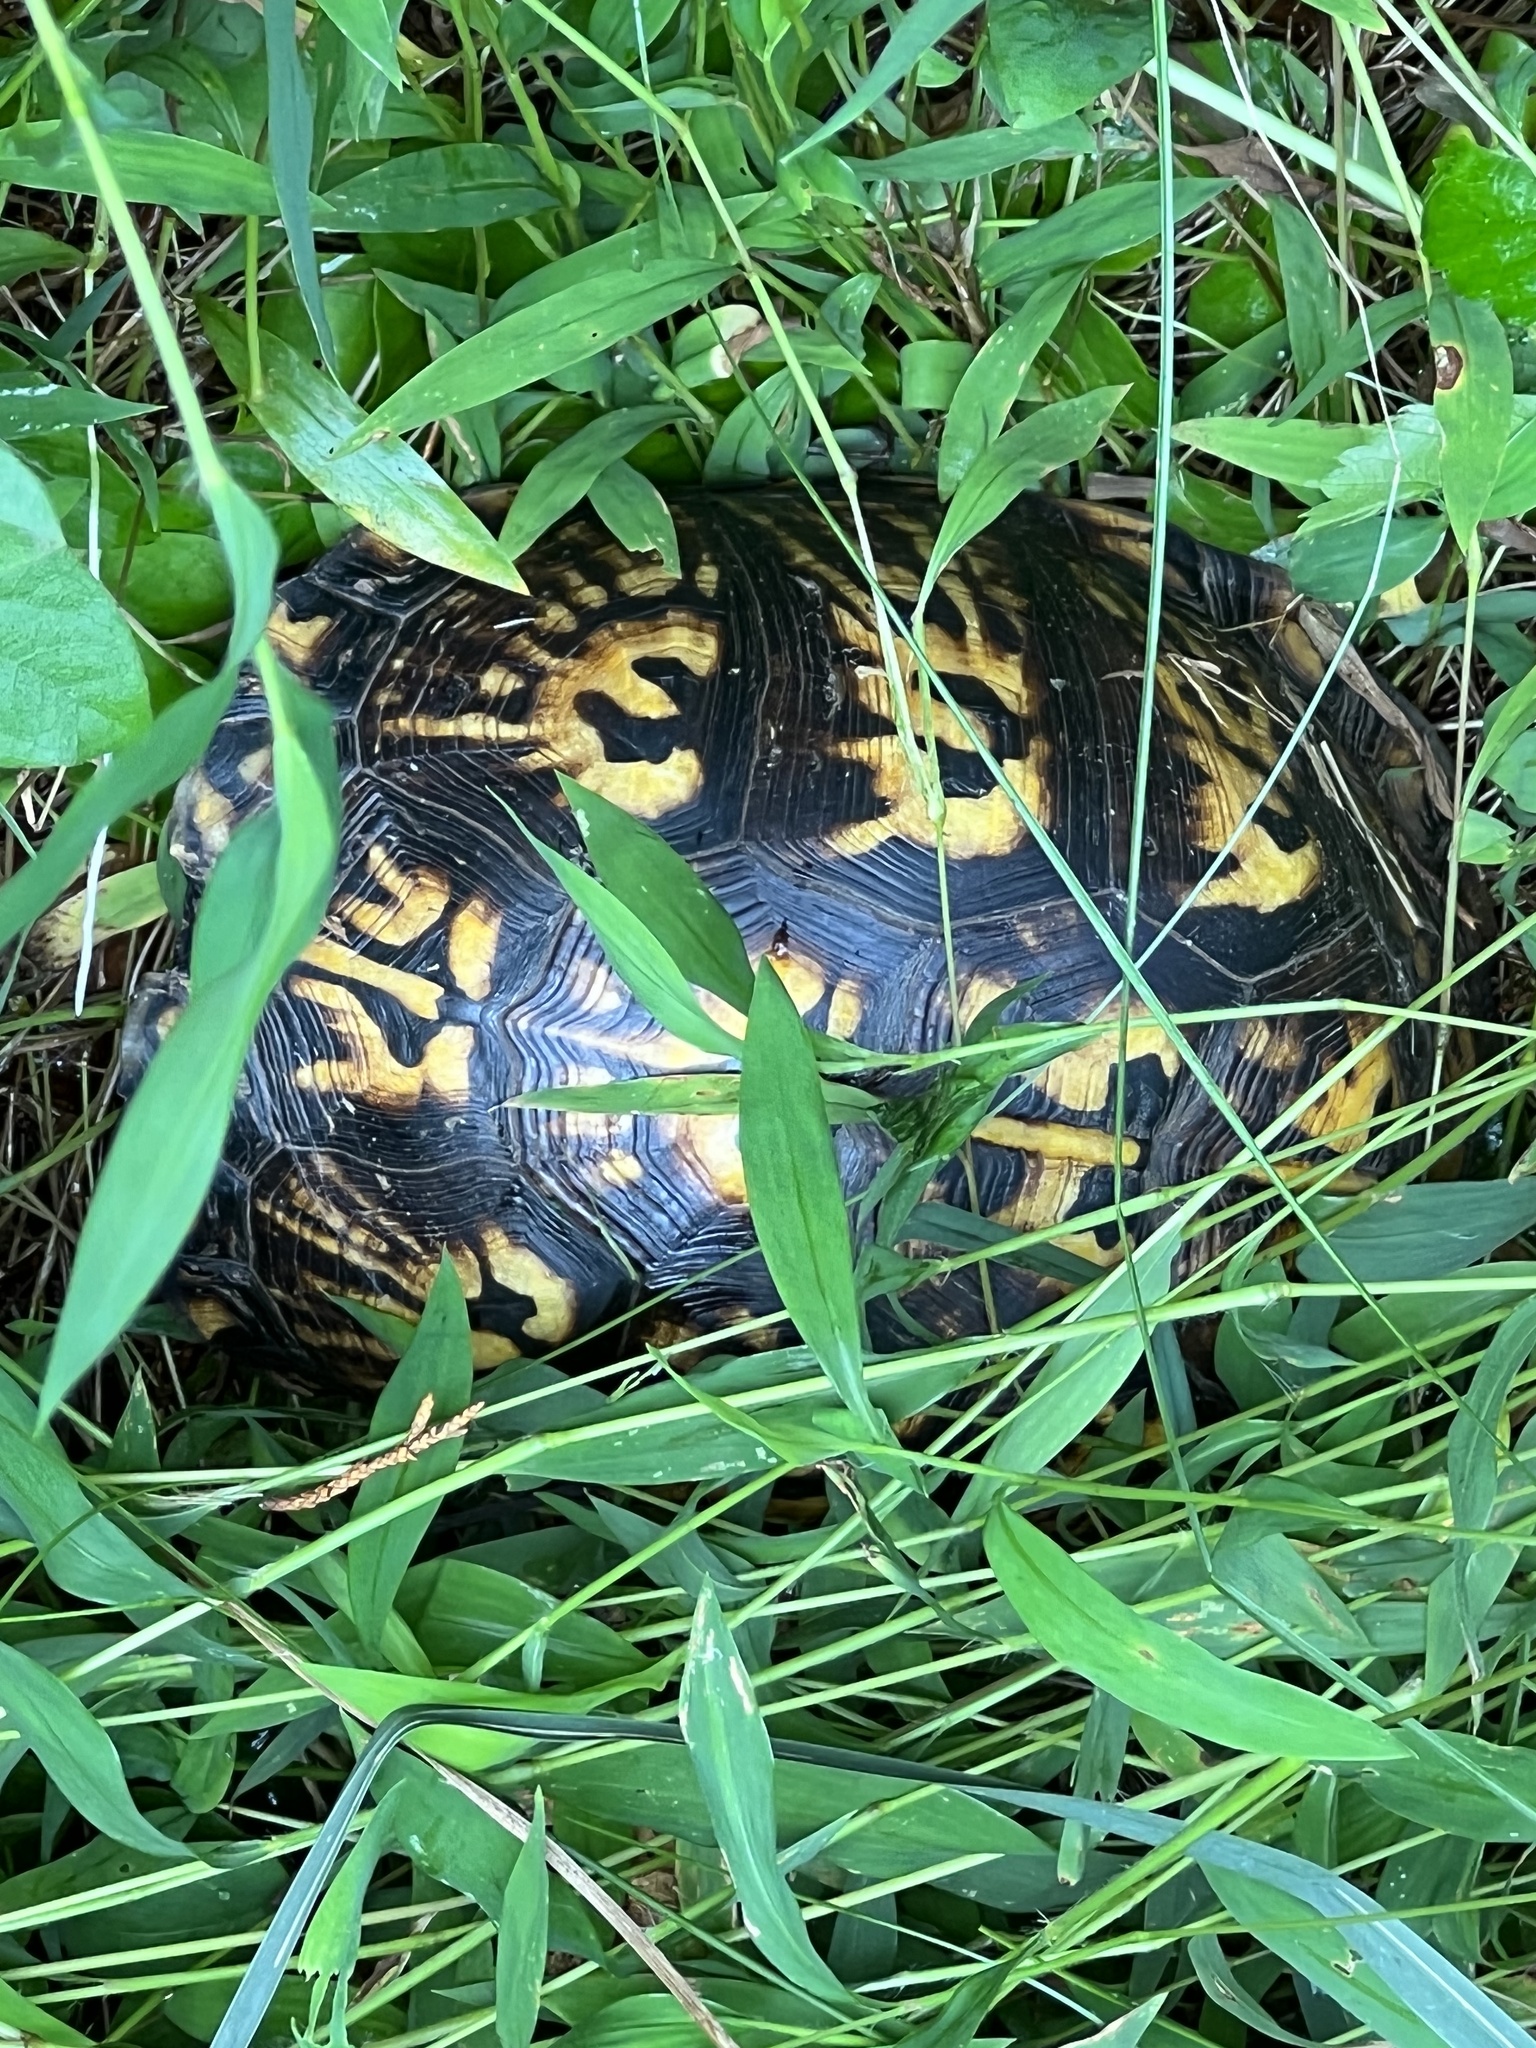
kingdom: Animalia
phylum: Chordata
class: Testudines
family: Emydidae
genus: Terrapene
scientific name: Terrapene carolina
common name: Common box turtle
